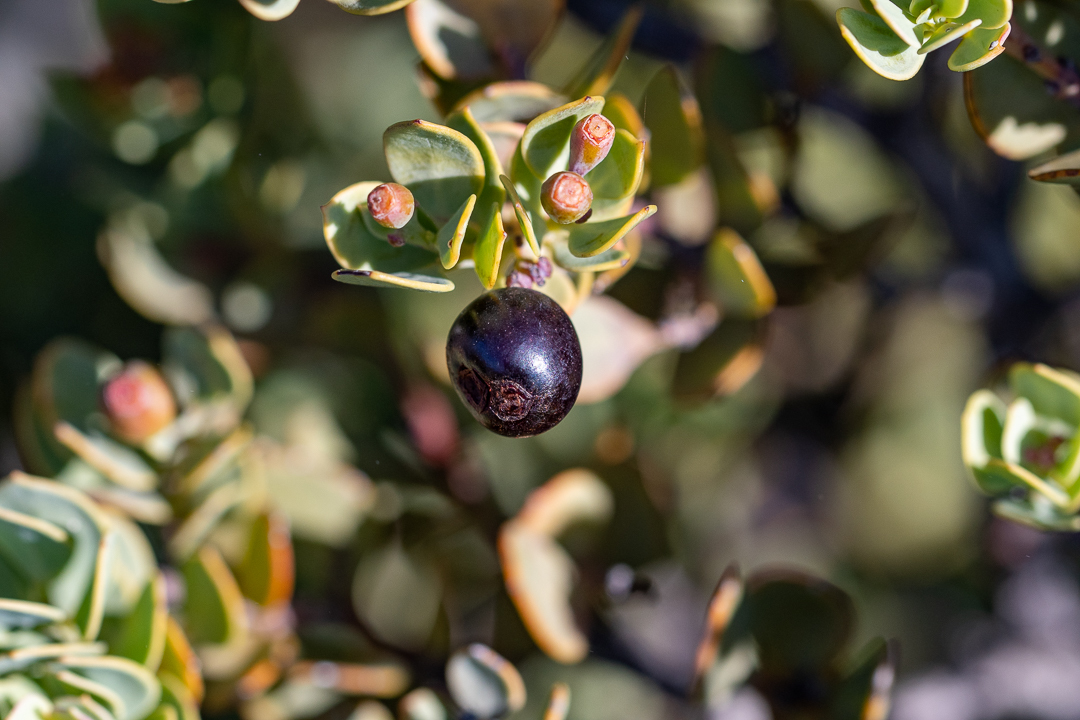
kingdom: Plantae
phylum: Tracheophyta
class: Magnoliopsida
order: Santalales
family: Santalaceae
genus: Osyris
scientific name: Osyris compressa
